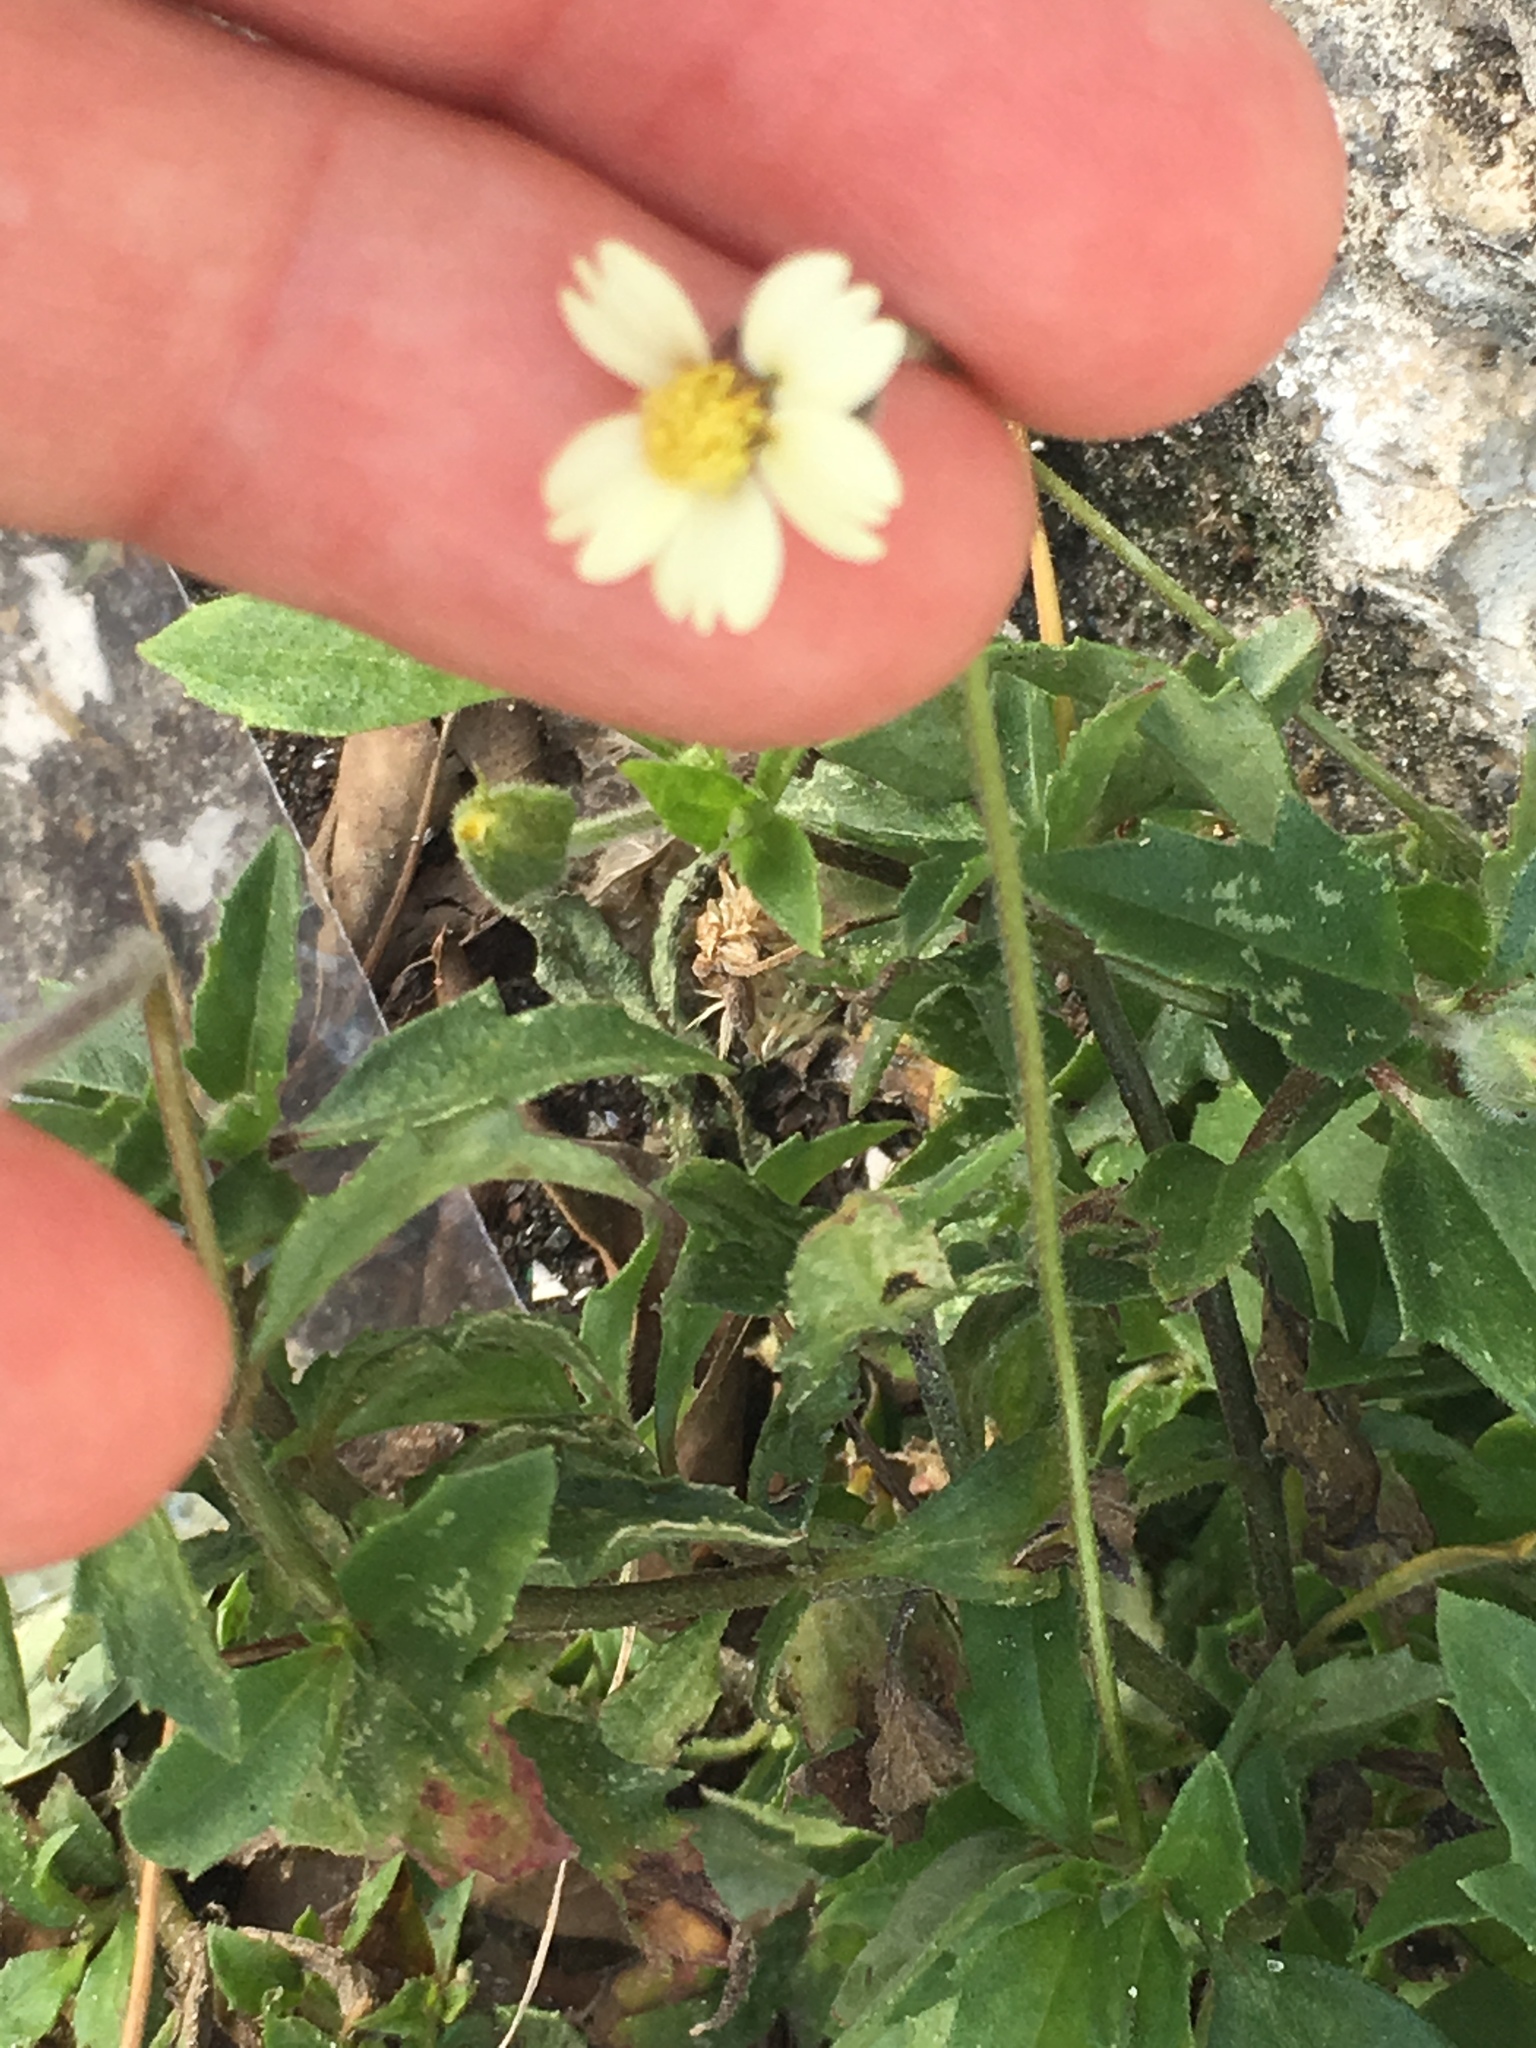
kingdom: Plantae
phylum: Tracheophyta
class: Magnoliopsida
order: Asterales
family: Asteraceae
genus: Tridax
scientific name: Tridax procumbens
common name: Coatbuttons
